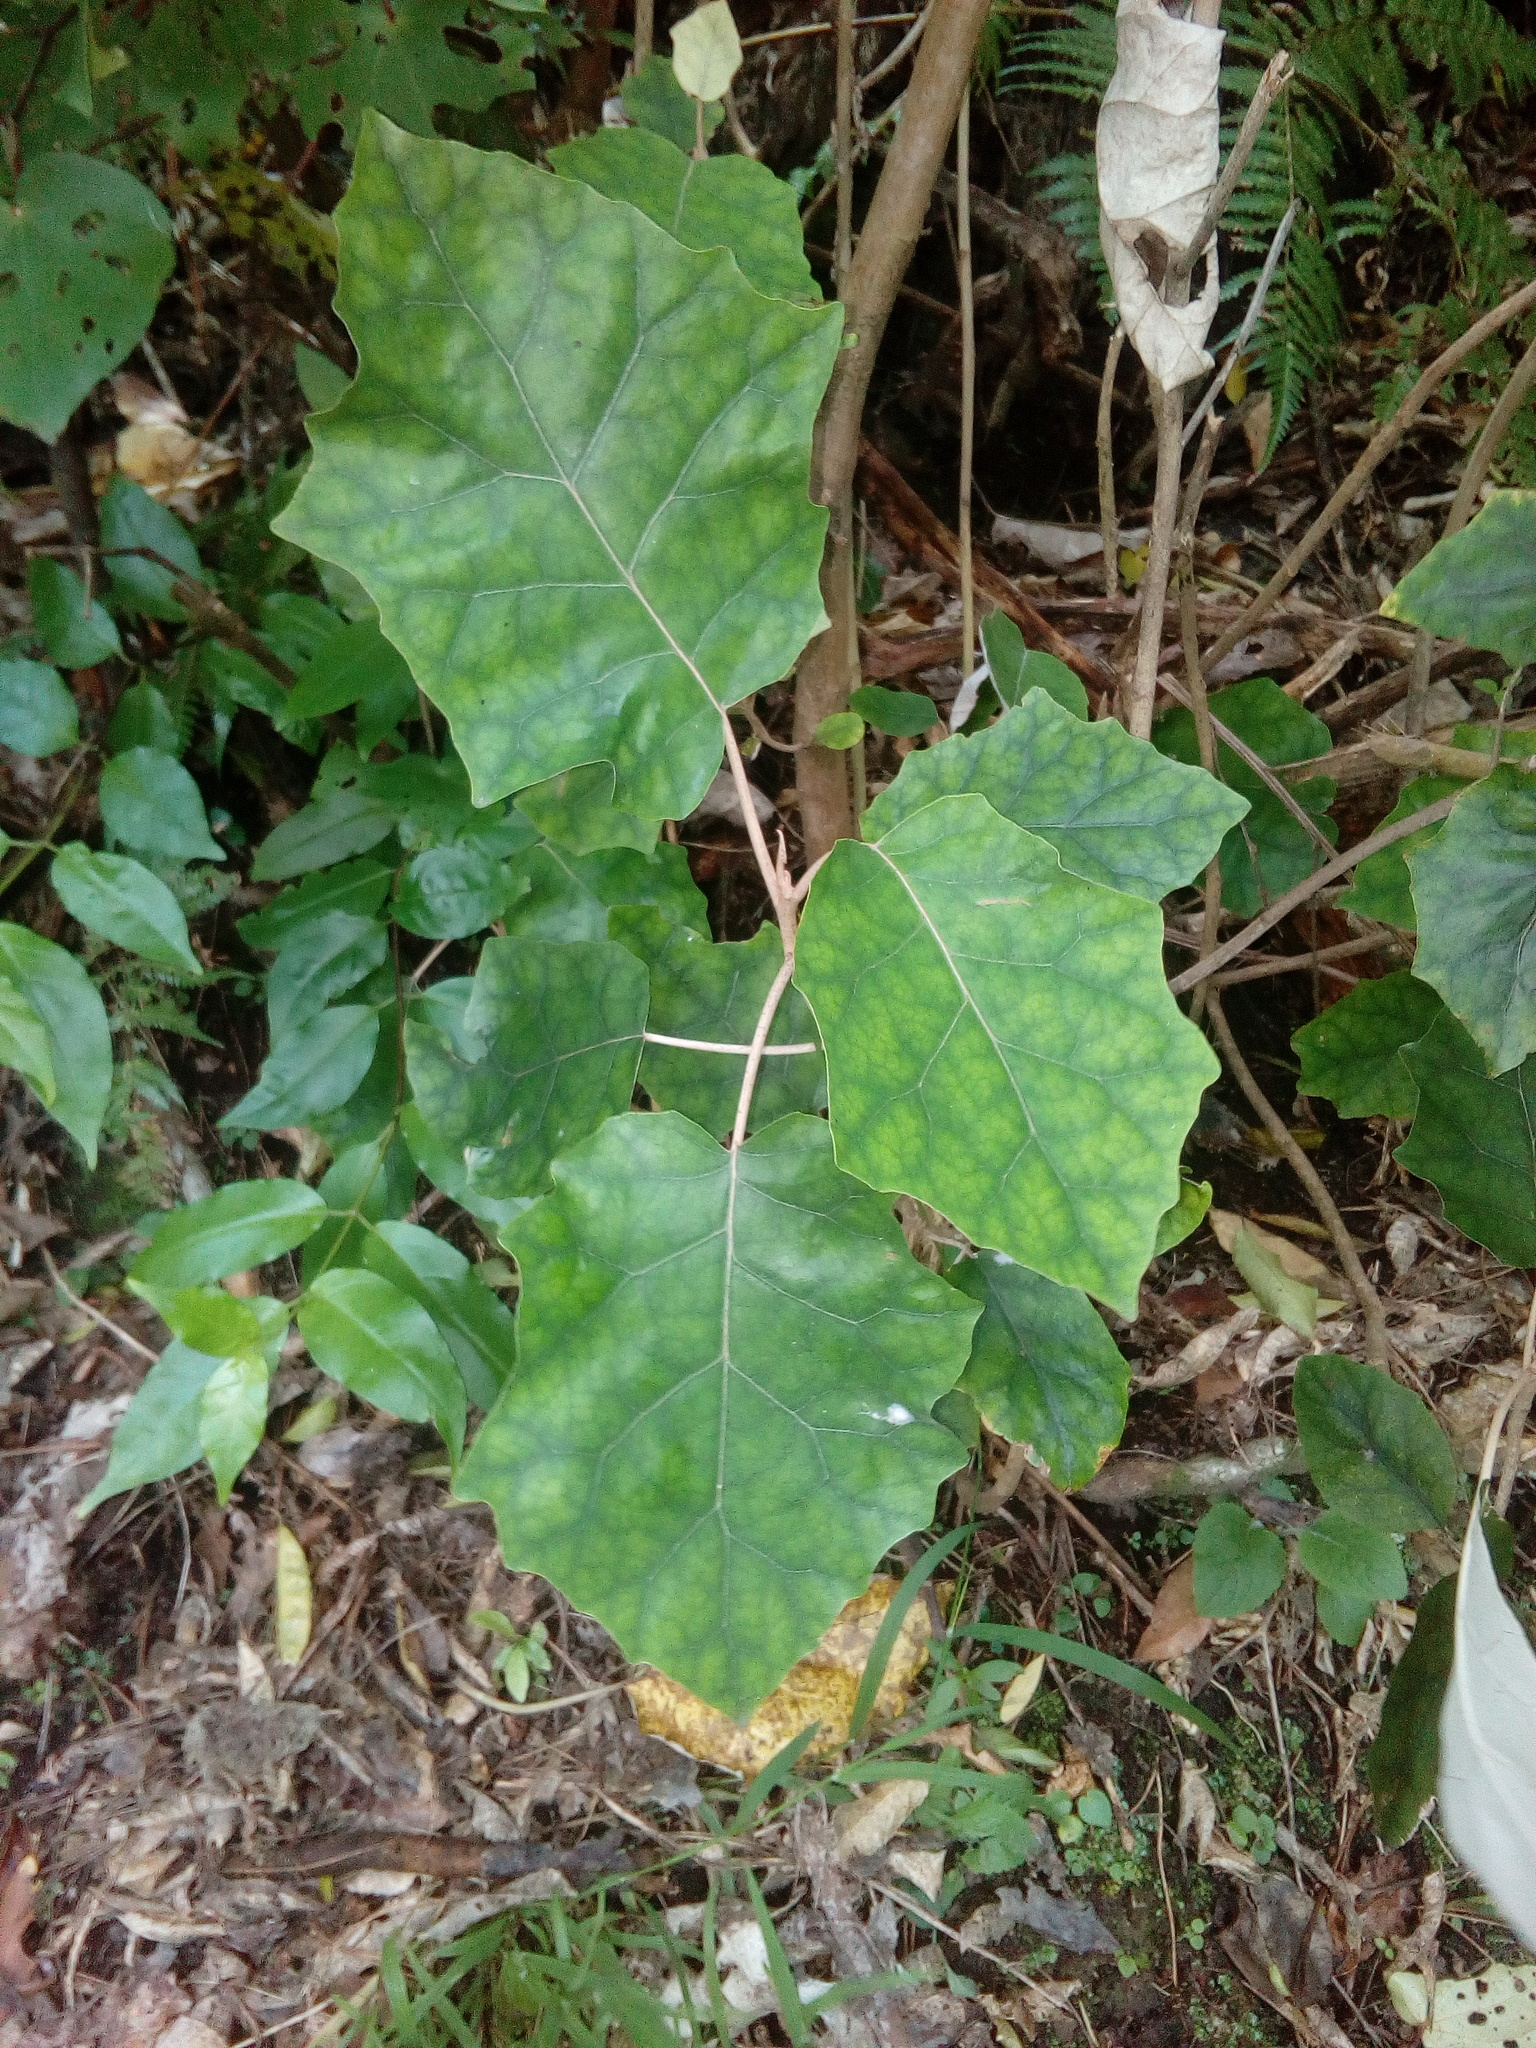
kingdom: Plantae
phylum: Tracheophyta
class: Magnoliopsida
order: Asterales
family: Asteraceae
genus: Brachyglottis
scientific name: Brachyglottis repanda
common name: Hedge ragwort
